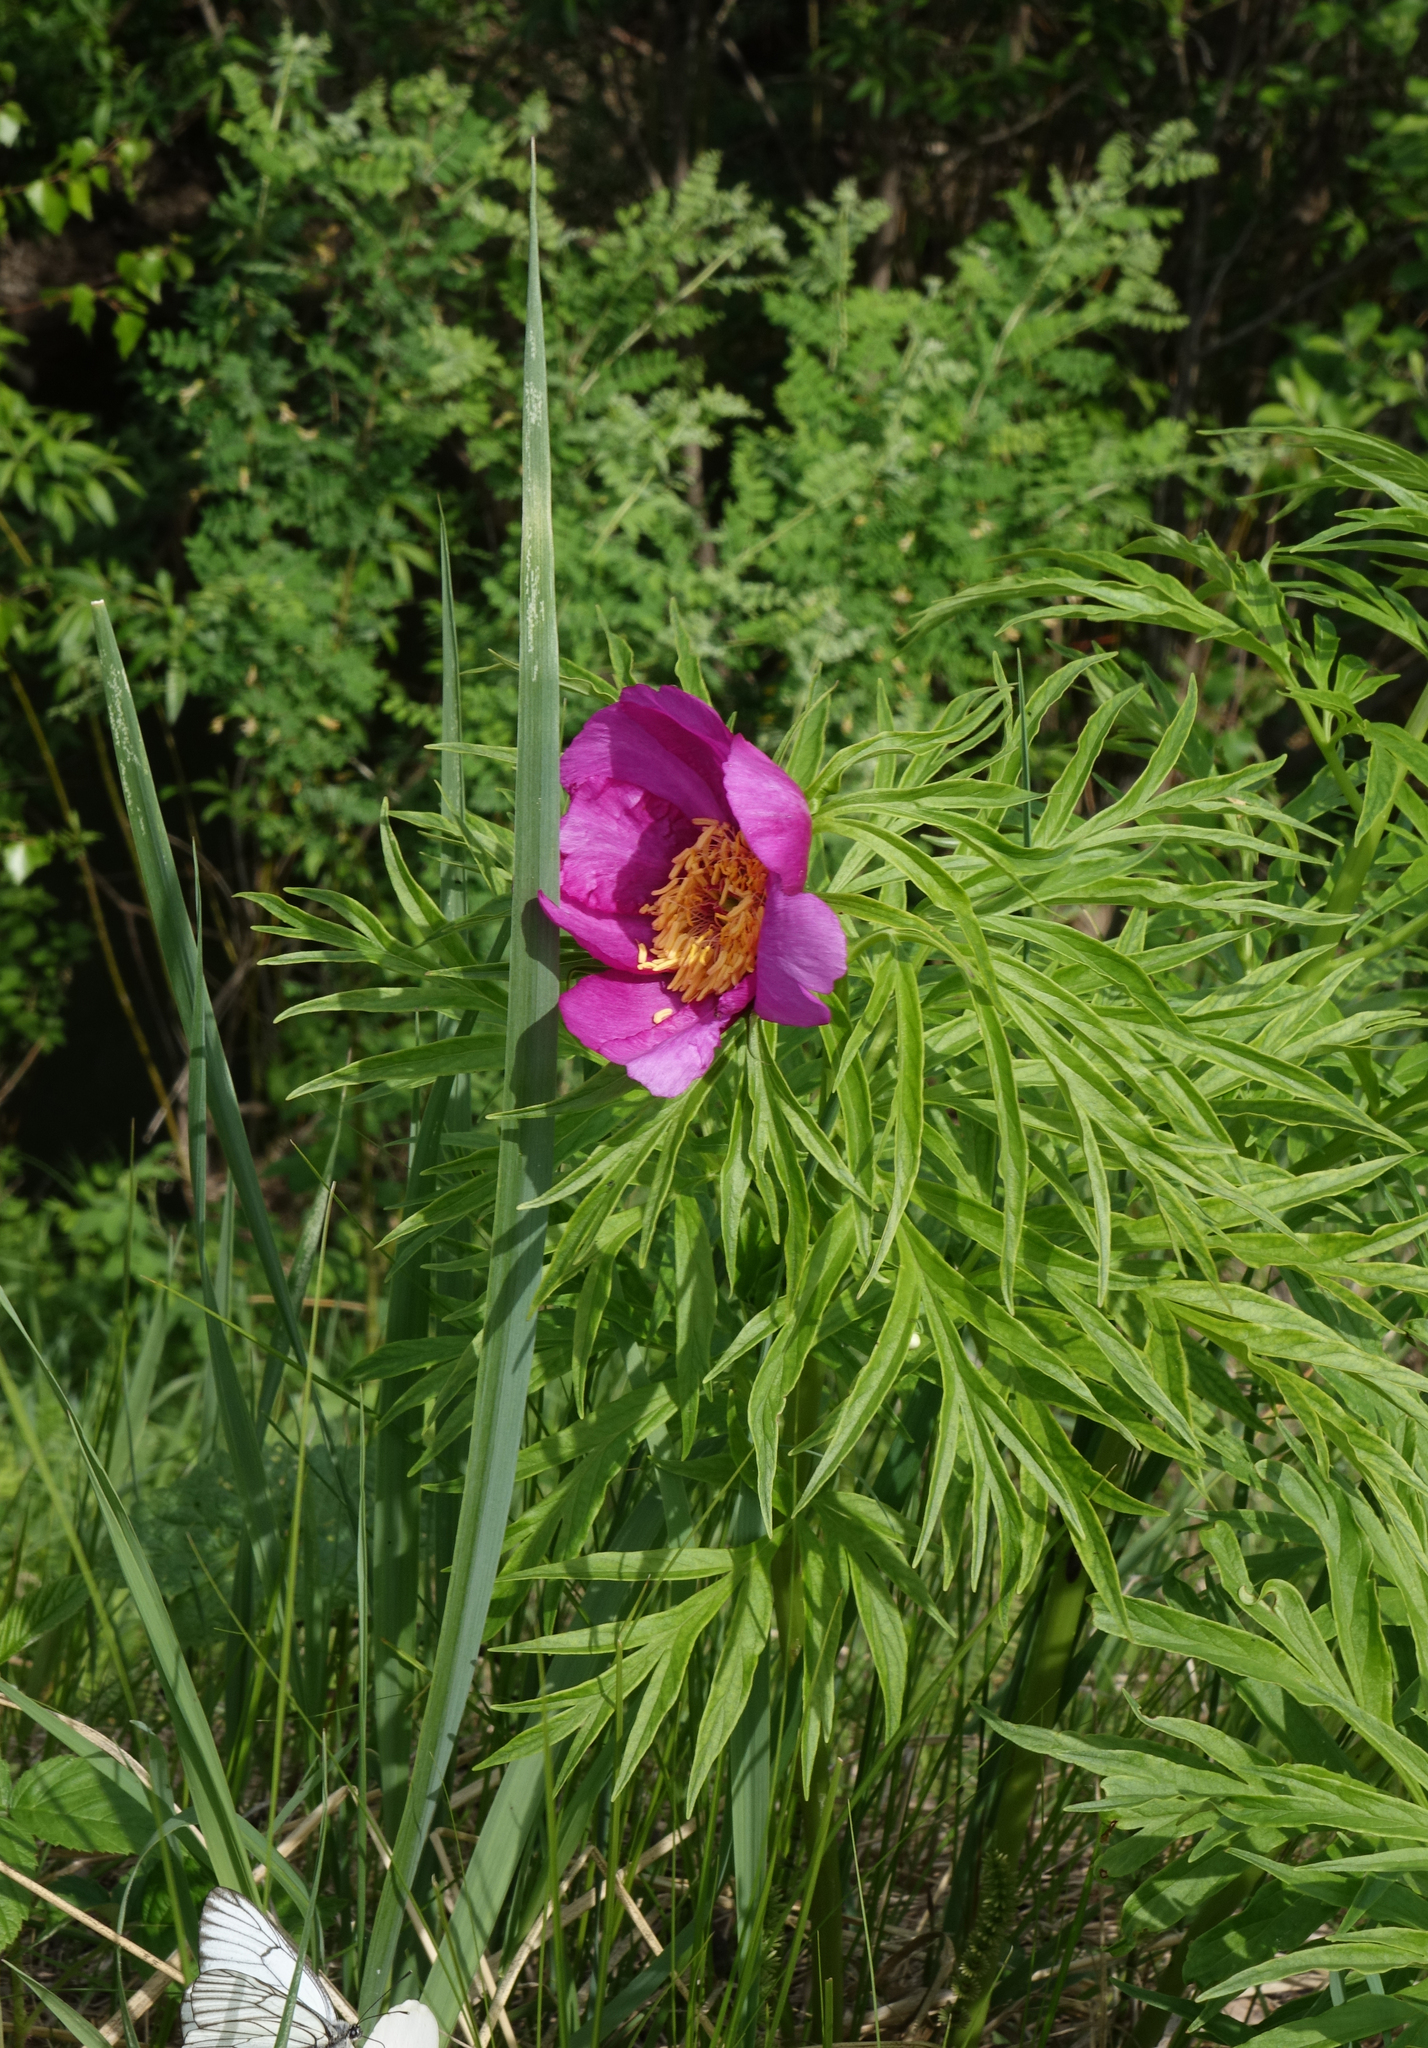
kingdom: Plantae
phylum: Tracheophyta
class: Magnoliopsida
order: Saxifragales
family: Paeoniaceae
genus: Paeonia
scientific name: Paeonia anomala
